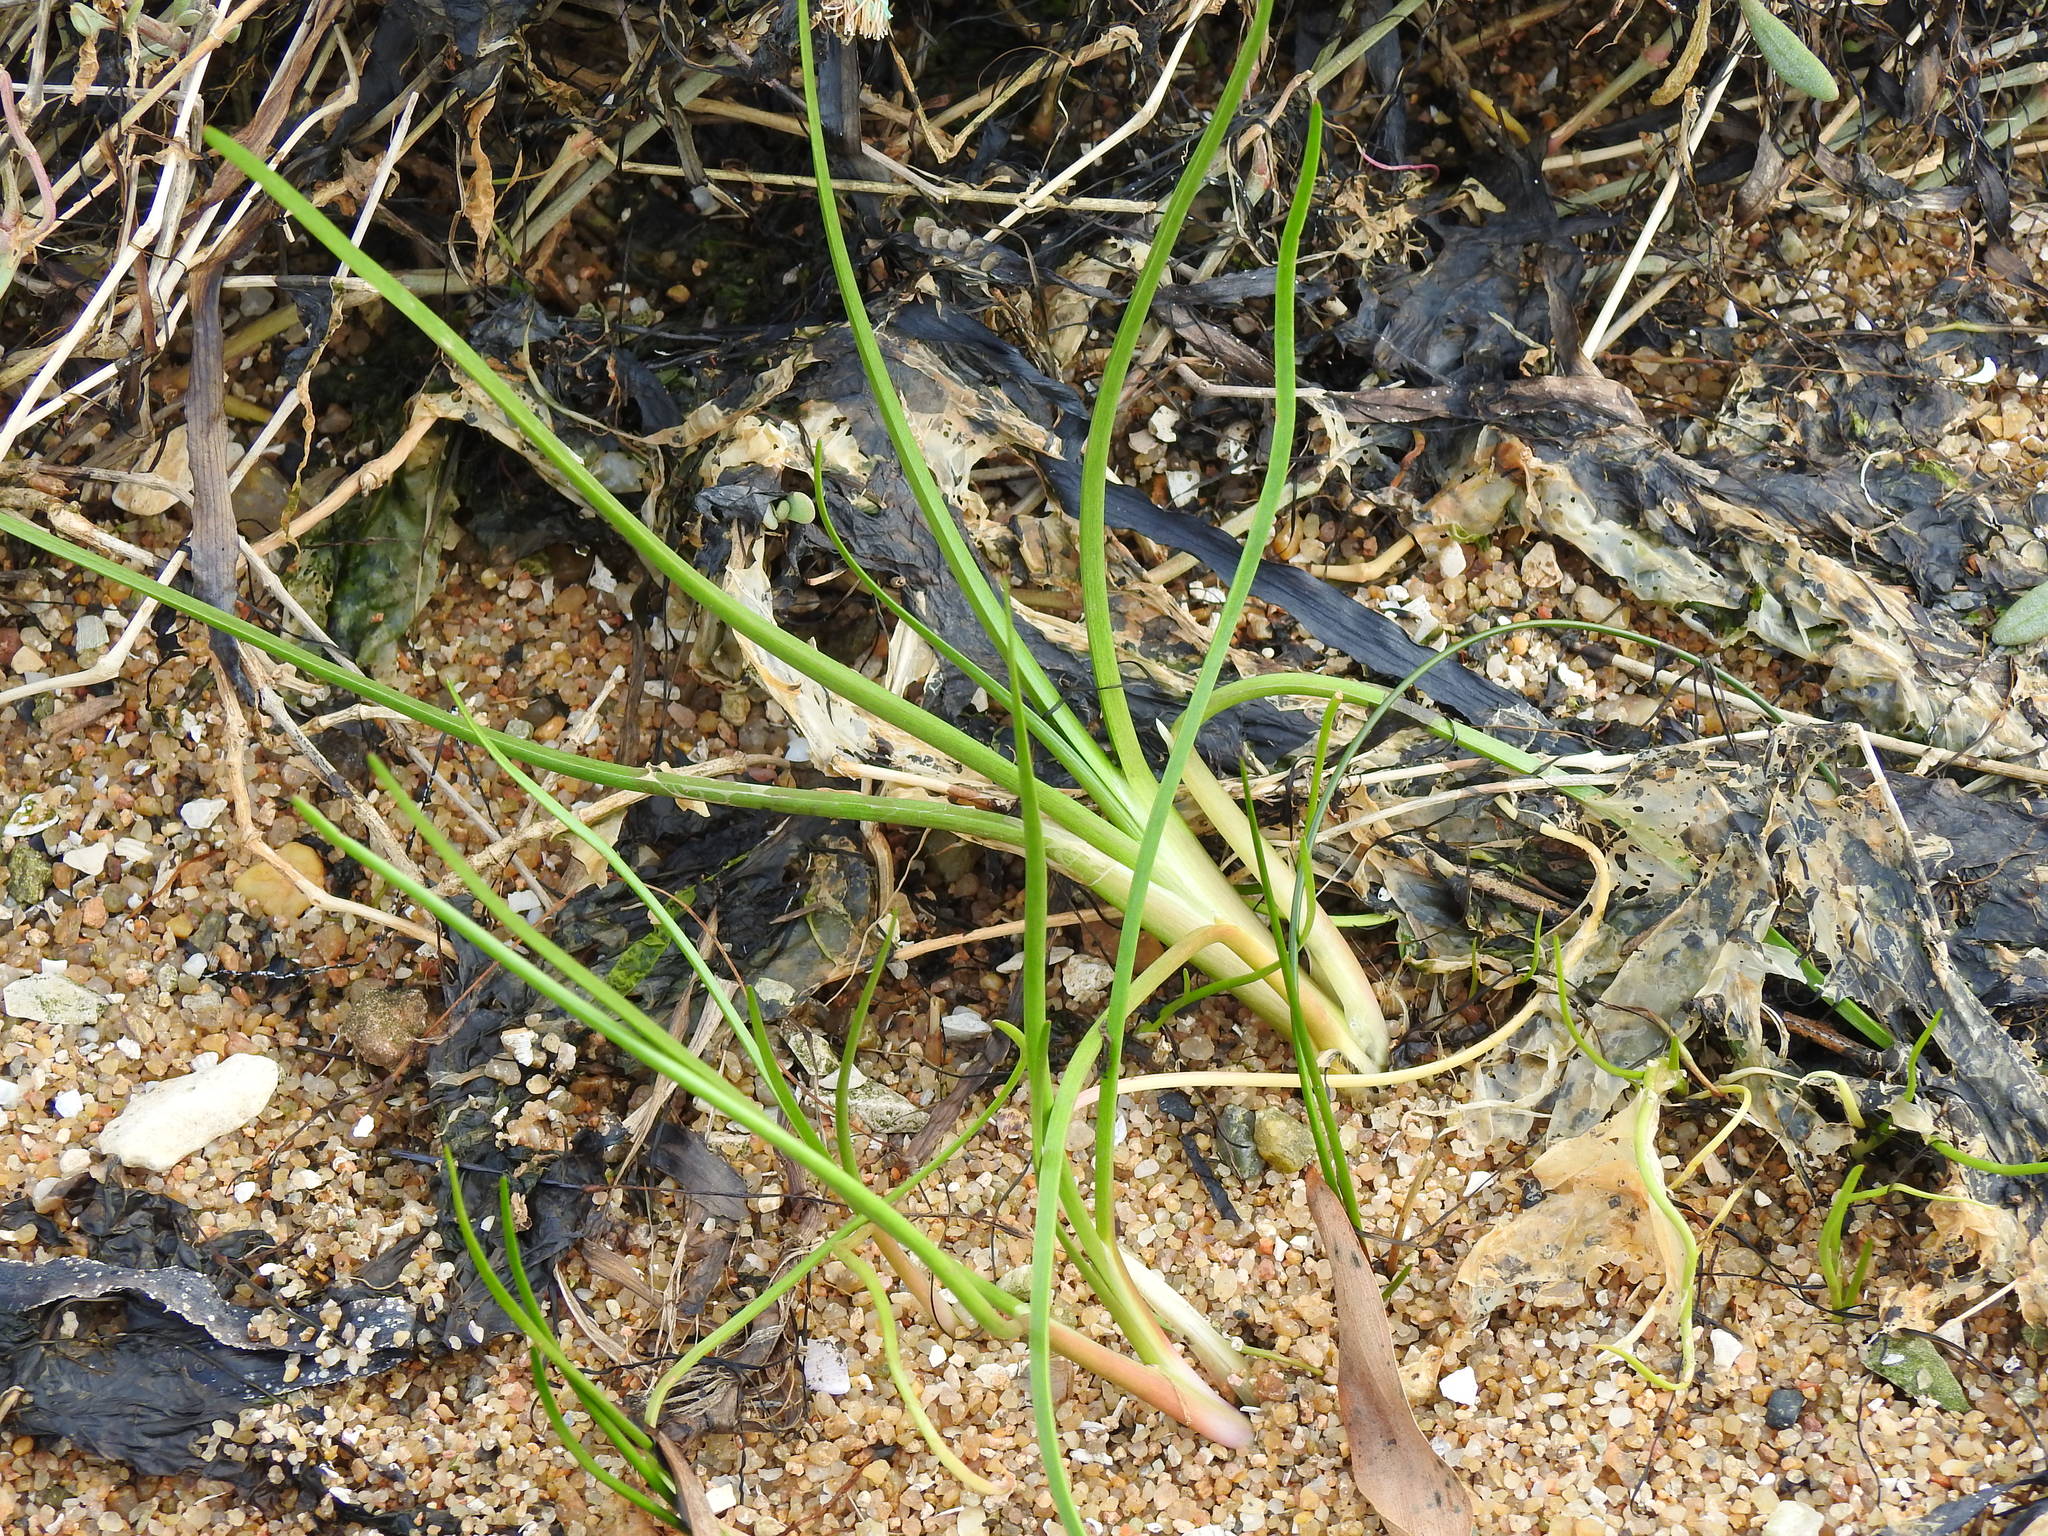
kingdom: Plantae
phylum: Tracheophyta
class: Liliopsida
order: Alismatales
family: Juncaginaceae
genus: Triglochin
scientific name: Triglochin maritima
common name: Sea arrowgrass
